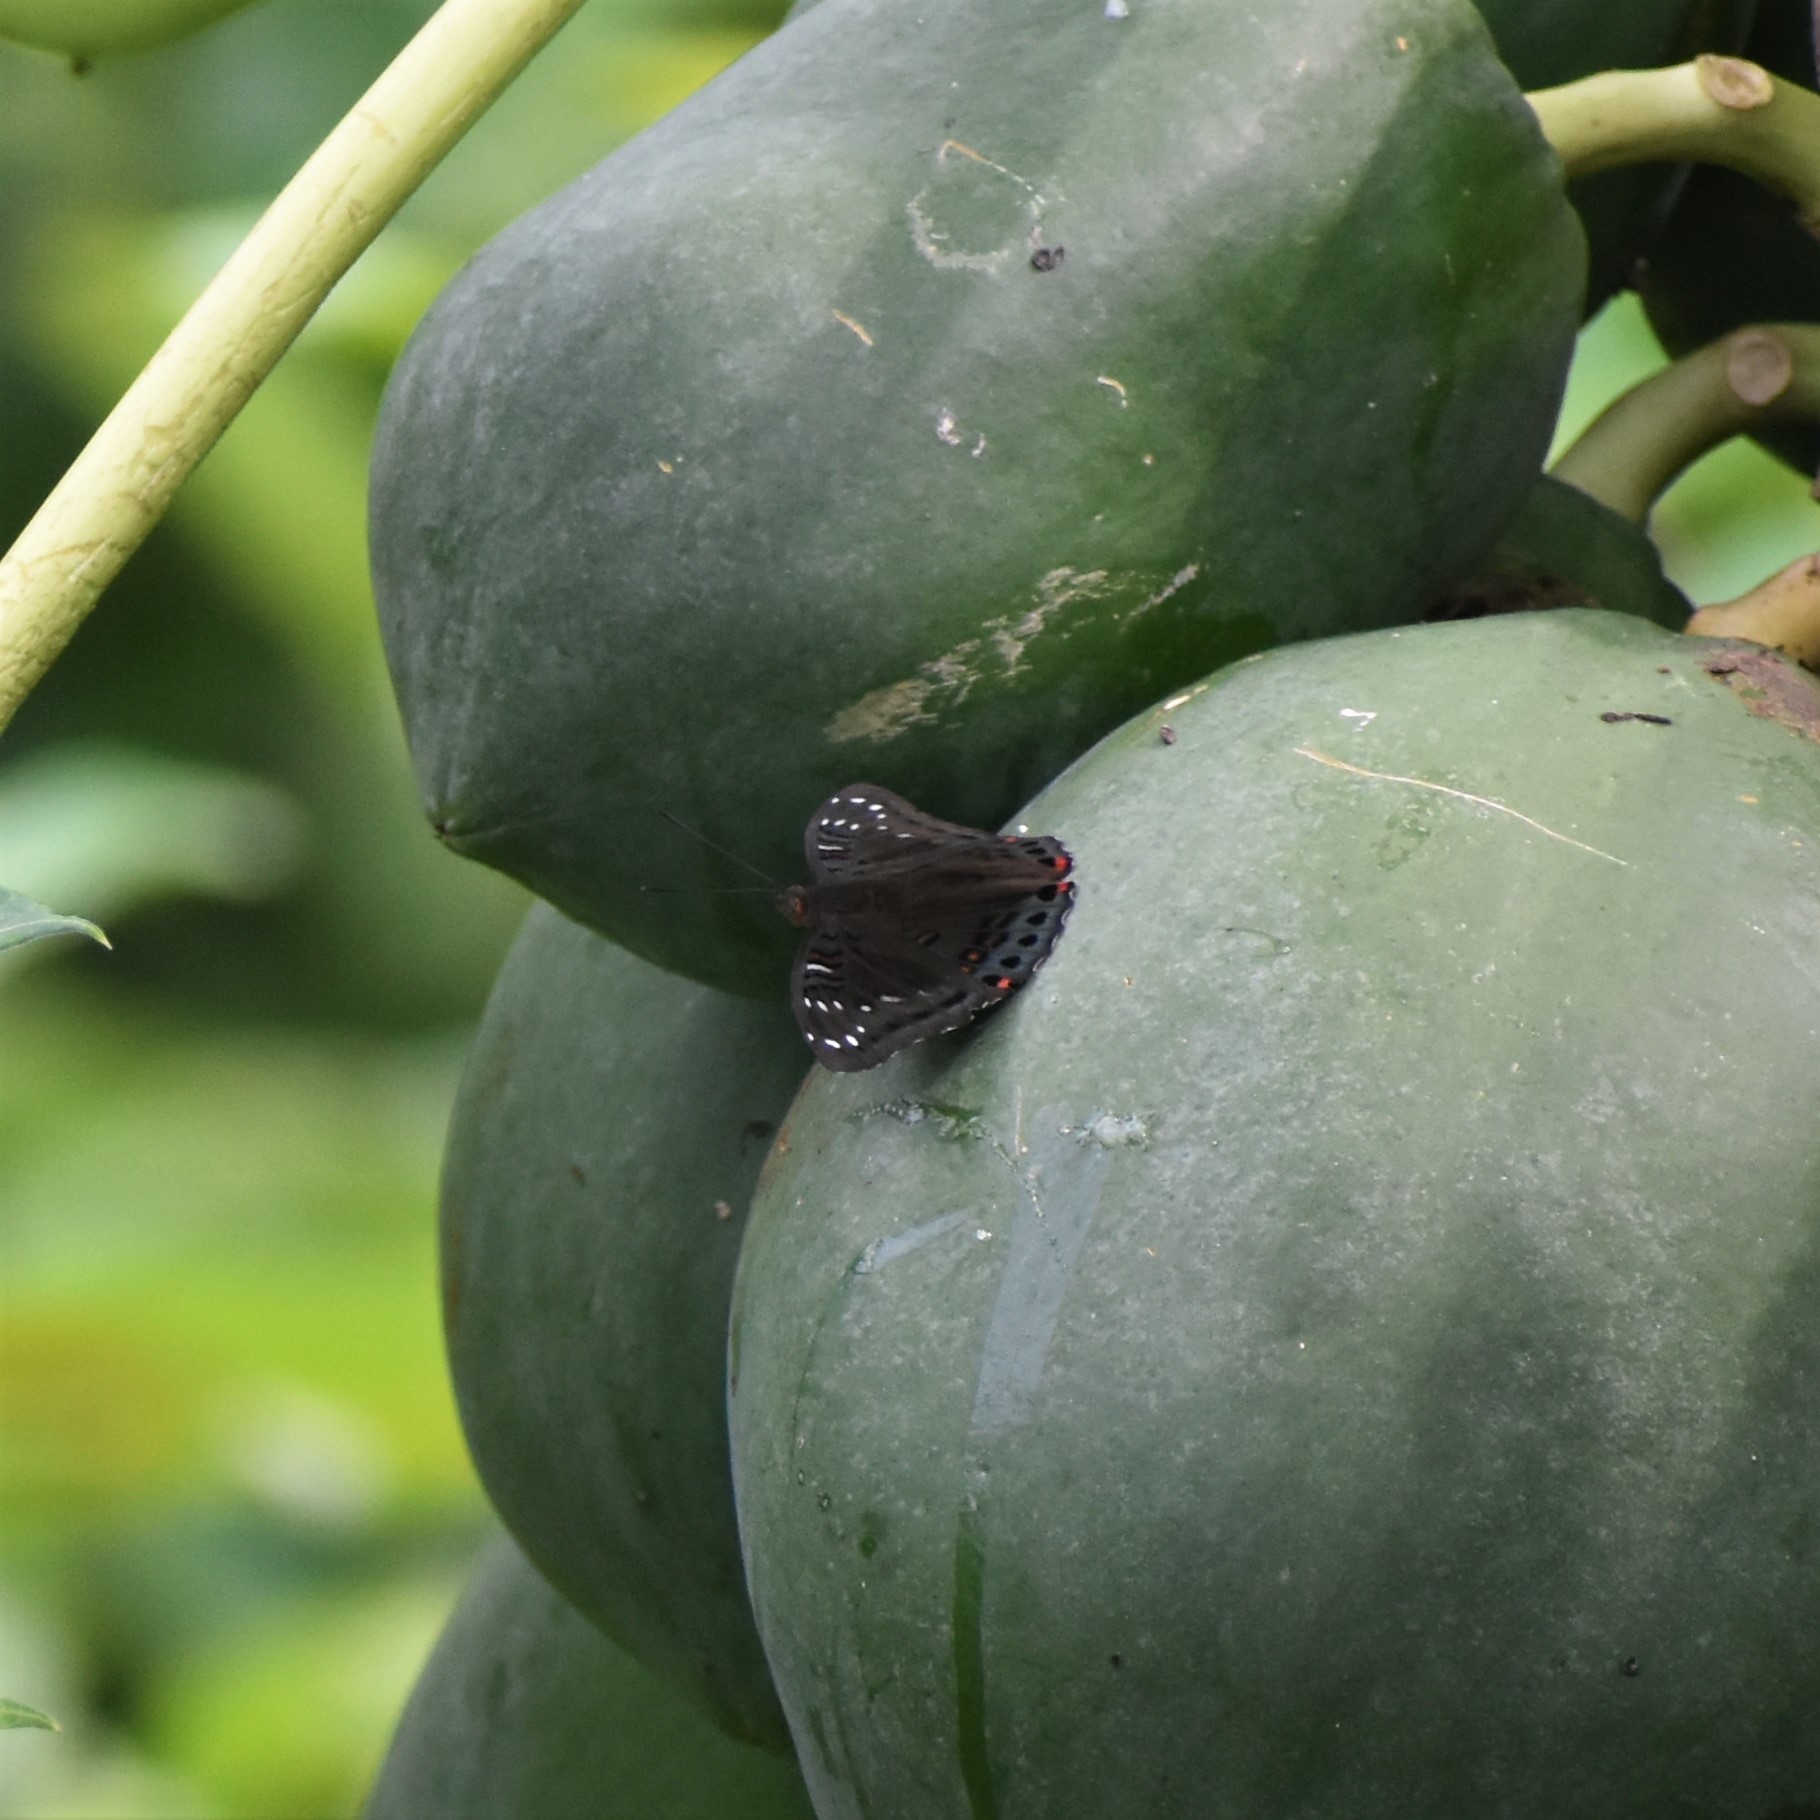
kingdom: Animalia
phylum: Arthropoda
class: Insecta
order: Lepidoptera
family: Nymphalidae
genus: Euthalia
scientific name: Euthalia lubentina
